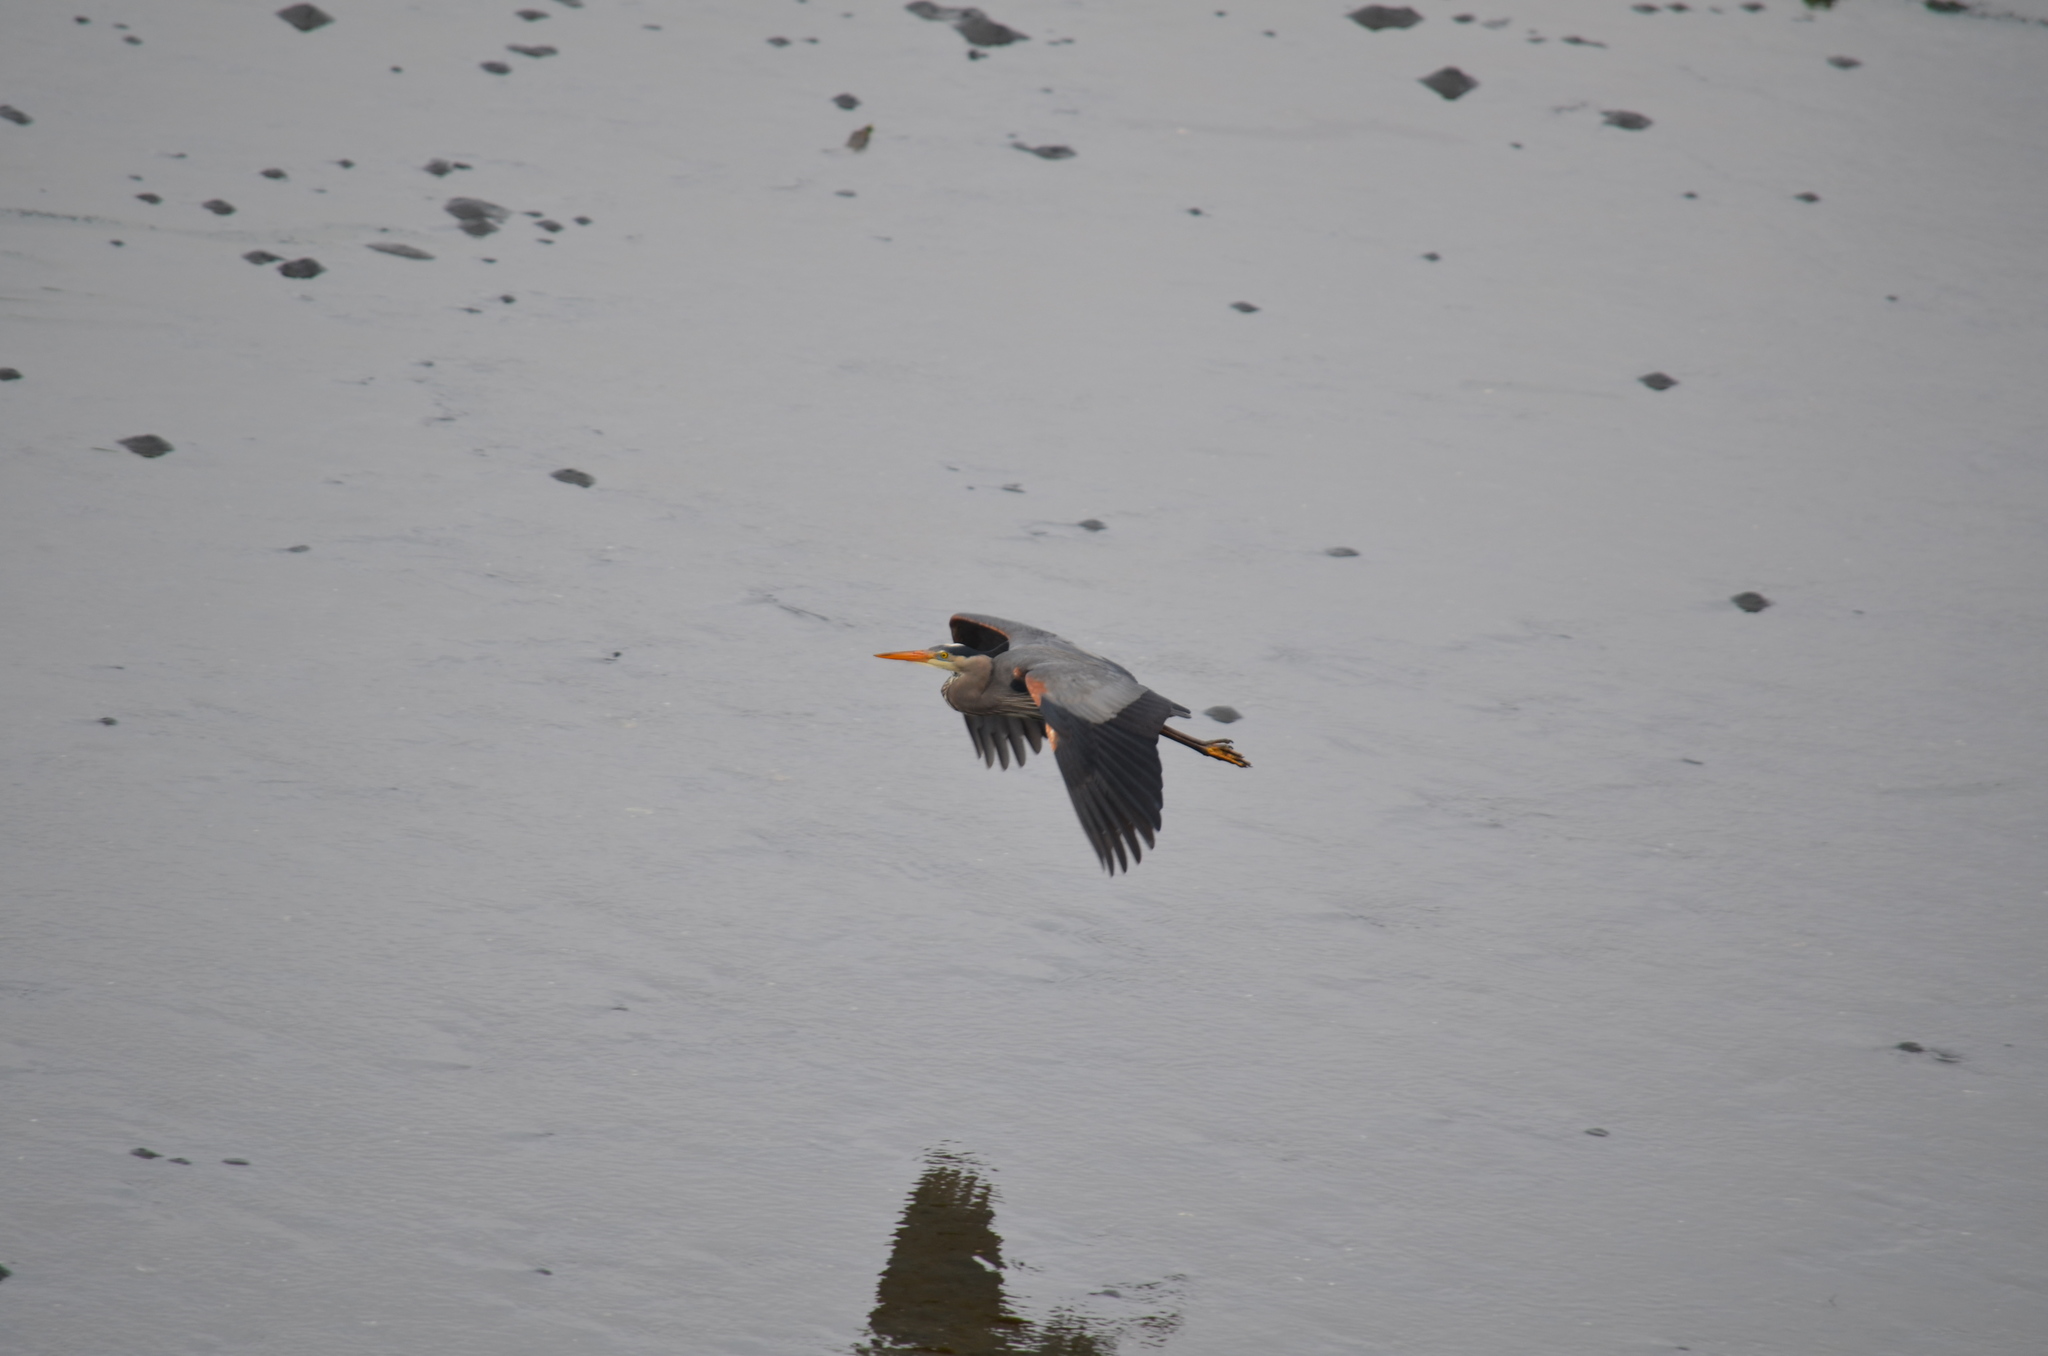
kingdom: Animalia
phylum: Chordata
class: Aves
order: Pelecaniformes
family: Ardeidae
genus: Ardea
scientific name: Ardea herodias
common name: Great blue heron
